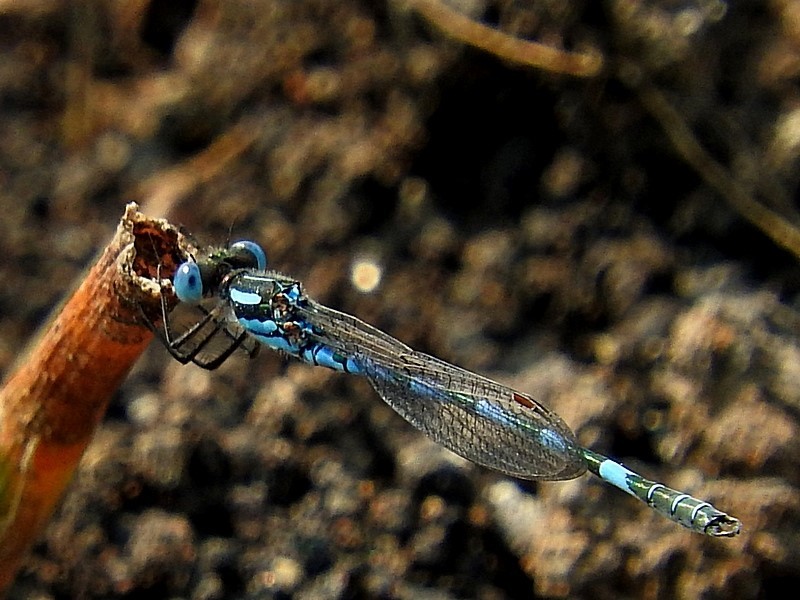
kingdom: Animalia
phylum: Arthropoda
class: Insecta
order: Odonata
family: Lestidae
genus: Austrolestes
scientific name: Austrolestes annulosus
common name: Blue ringtail
